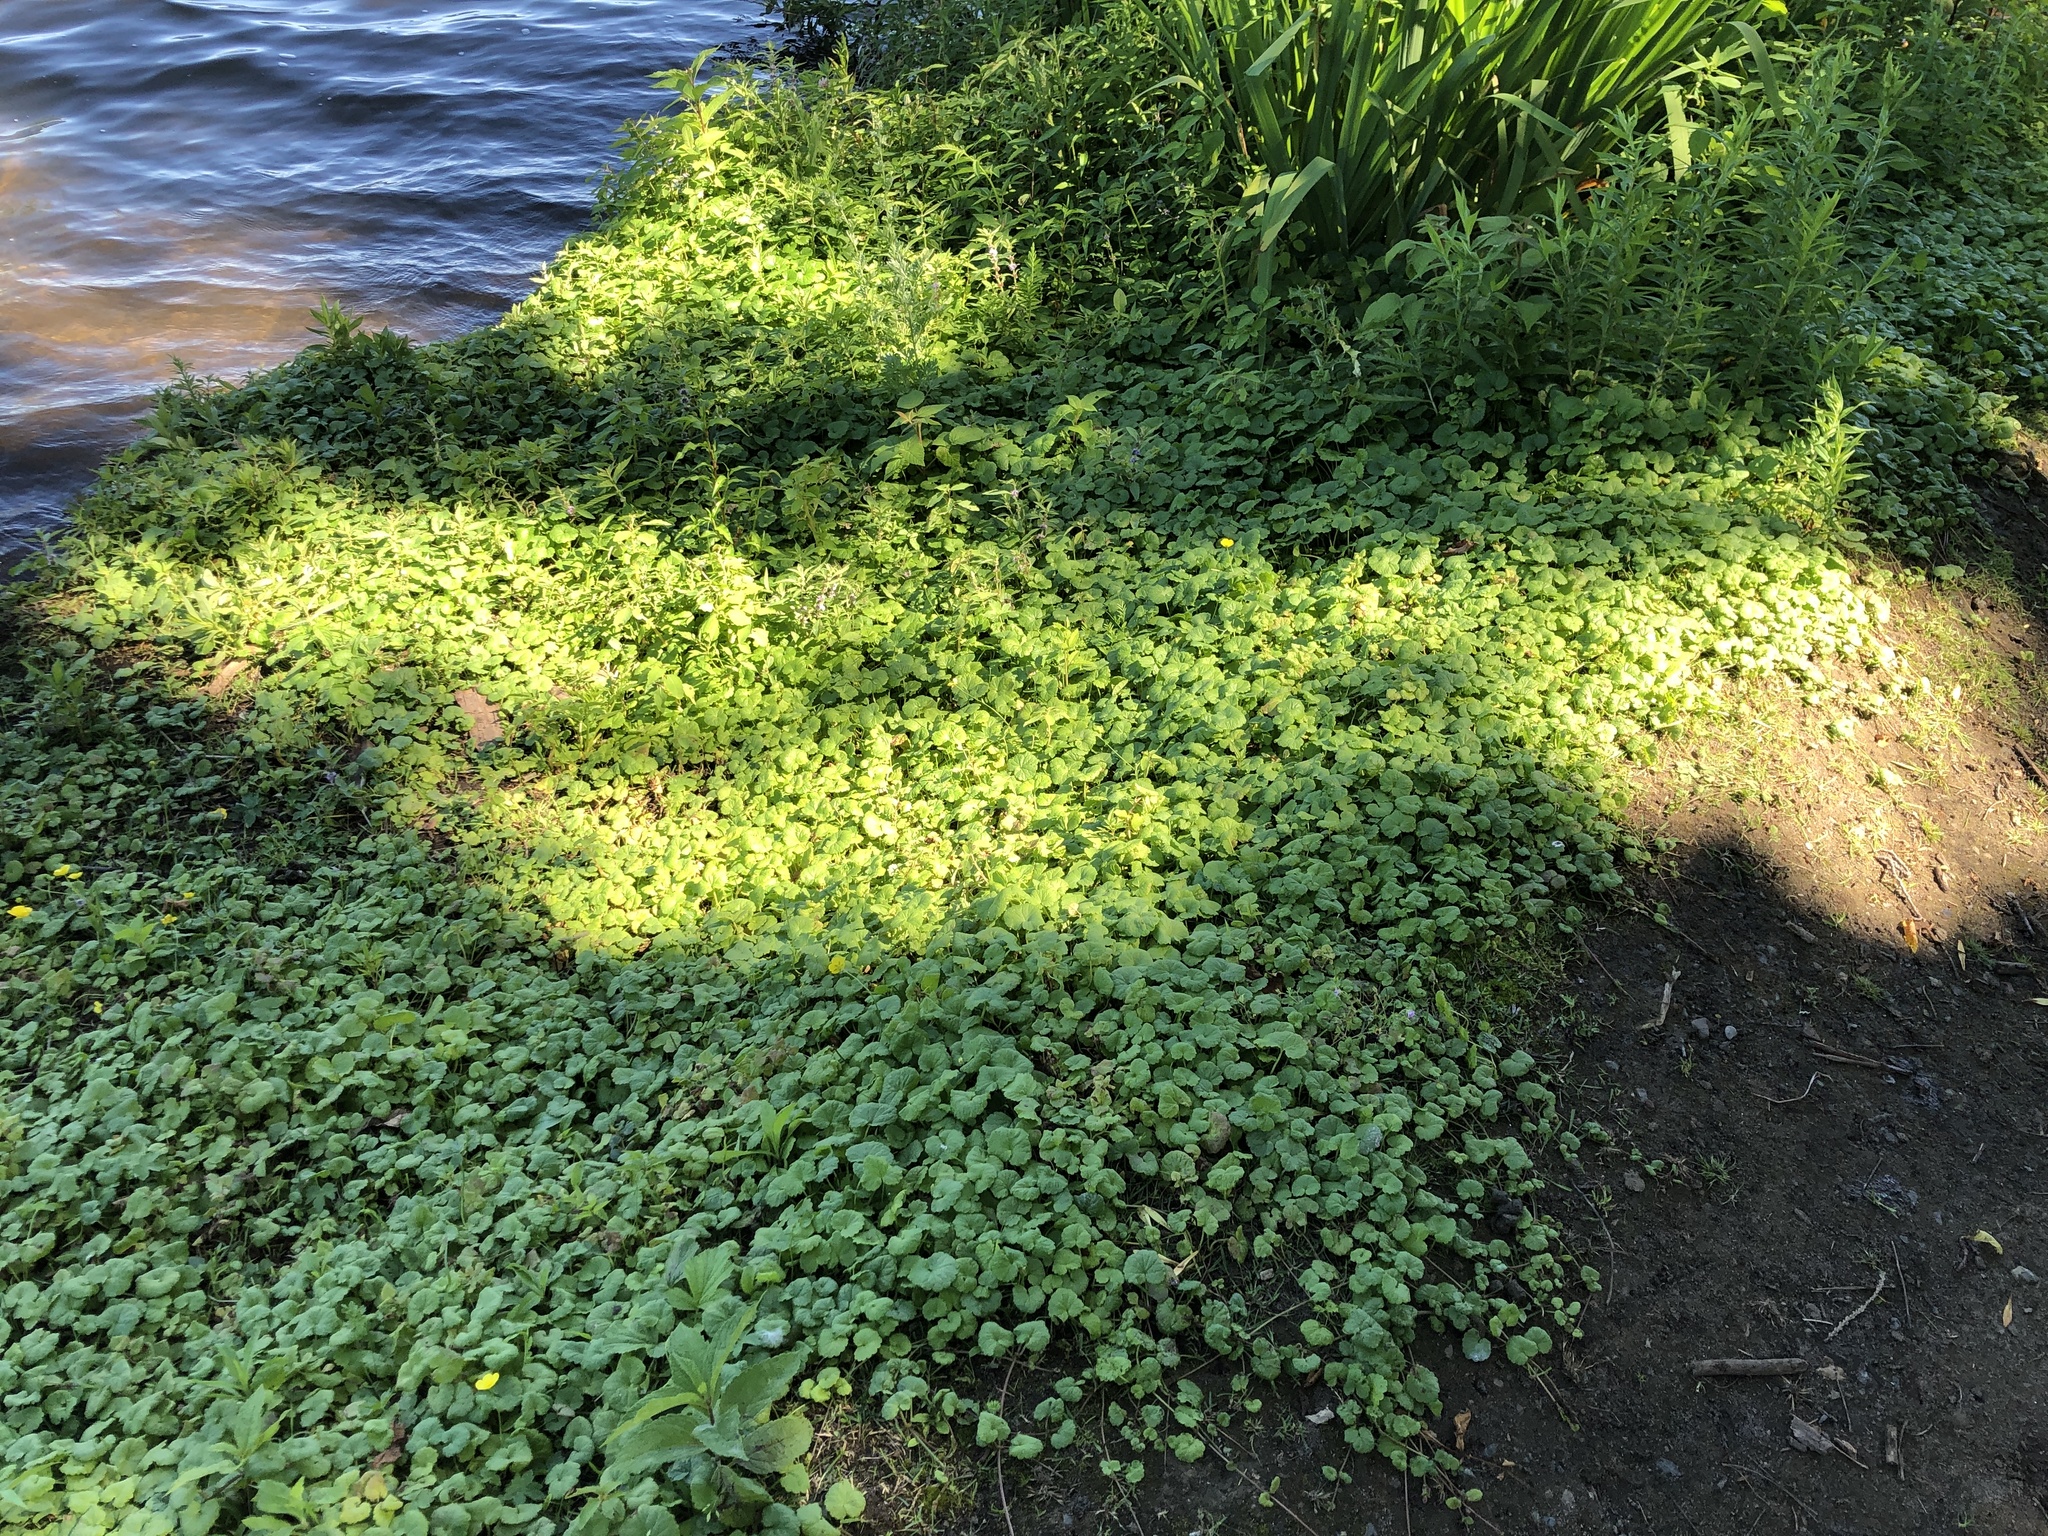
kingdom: Plantae
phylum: Tracheophyta
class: Magnoliopsida
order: Lamiales
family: Lamiaceae
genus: Glechoma
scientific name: Glechoma hederacea
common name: Ground ivy
